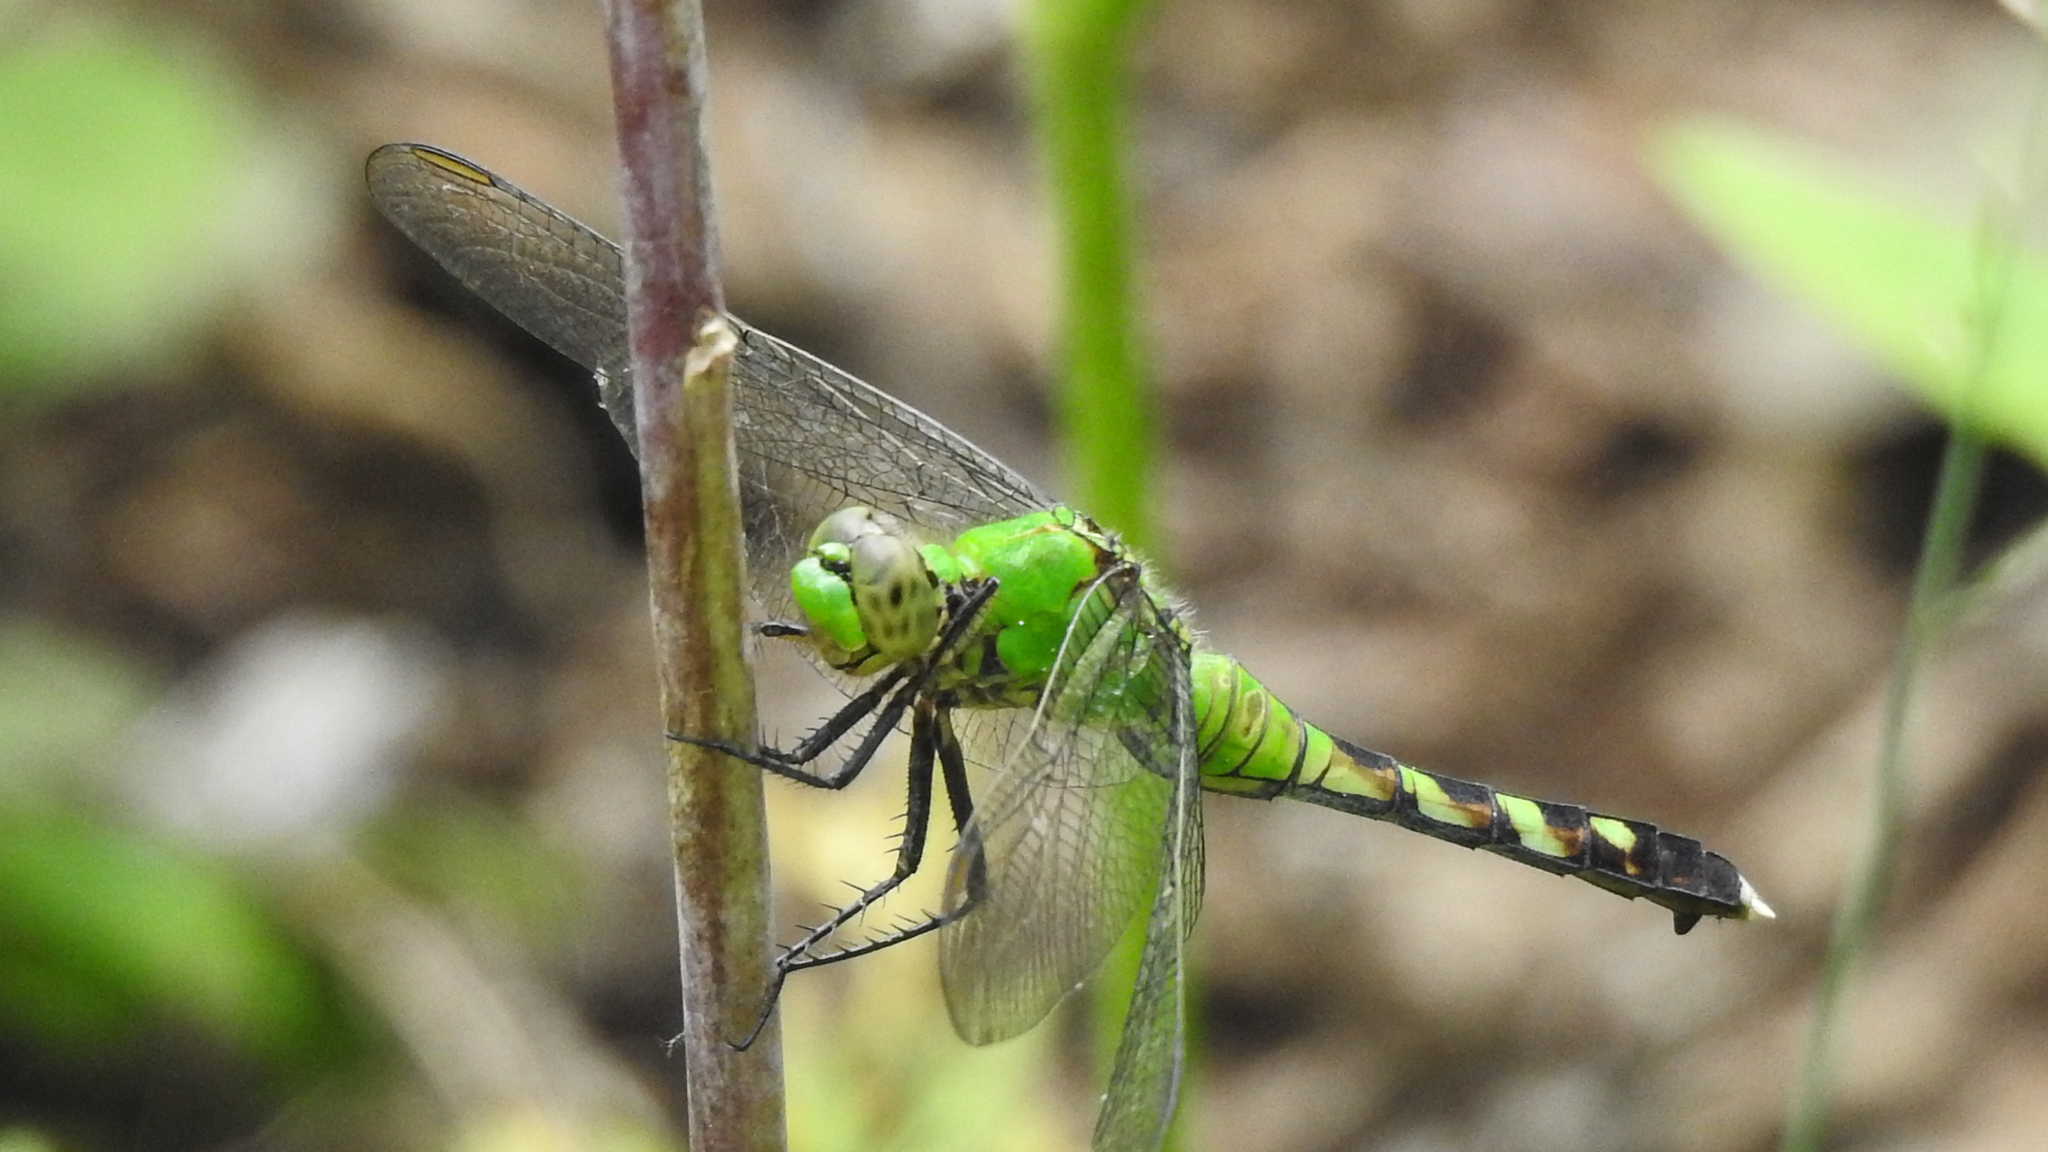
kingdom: Animalia
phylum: Arthropoda
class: Insecta
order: Odonata
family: Libellulidae
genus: Erythemis
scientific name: Erythemis simplicicollis
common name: Eastern pondhawk
